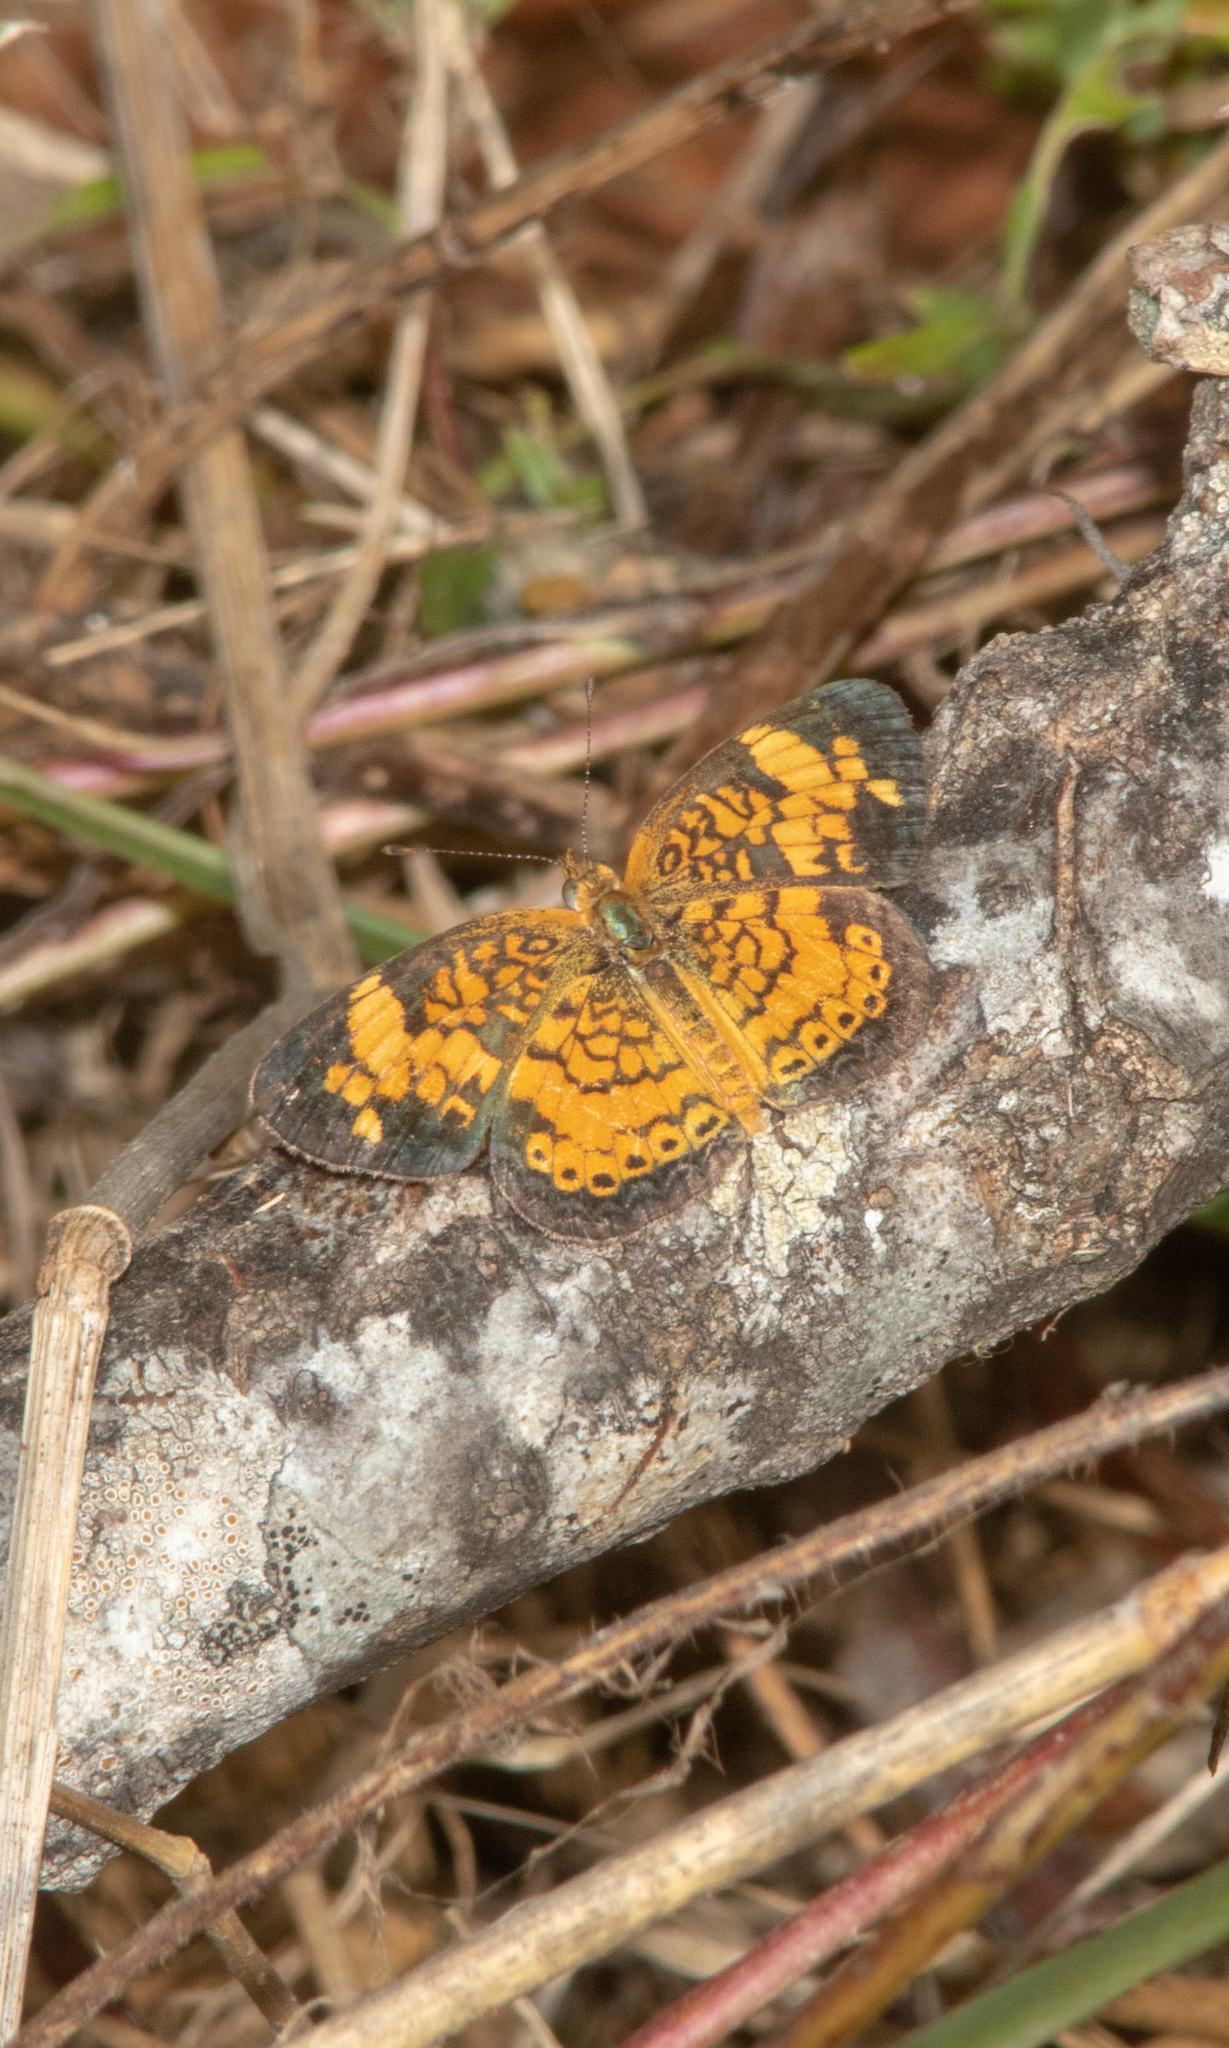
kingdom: Animalia
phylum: Arthropoda
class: Insecta
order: Lepidoptera
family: Nymphalidae
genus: Phyciodes
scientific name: Phyciodes tharos
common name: Pearl crescent
